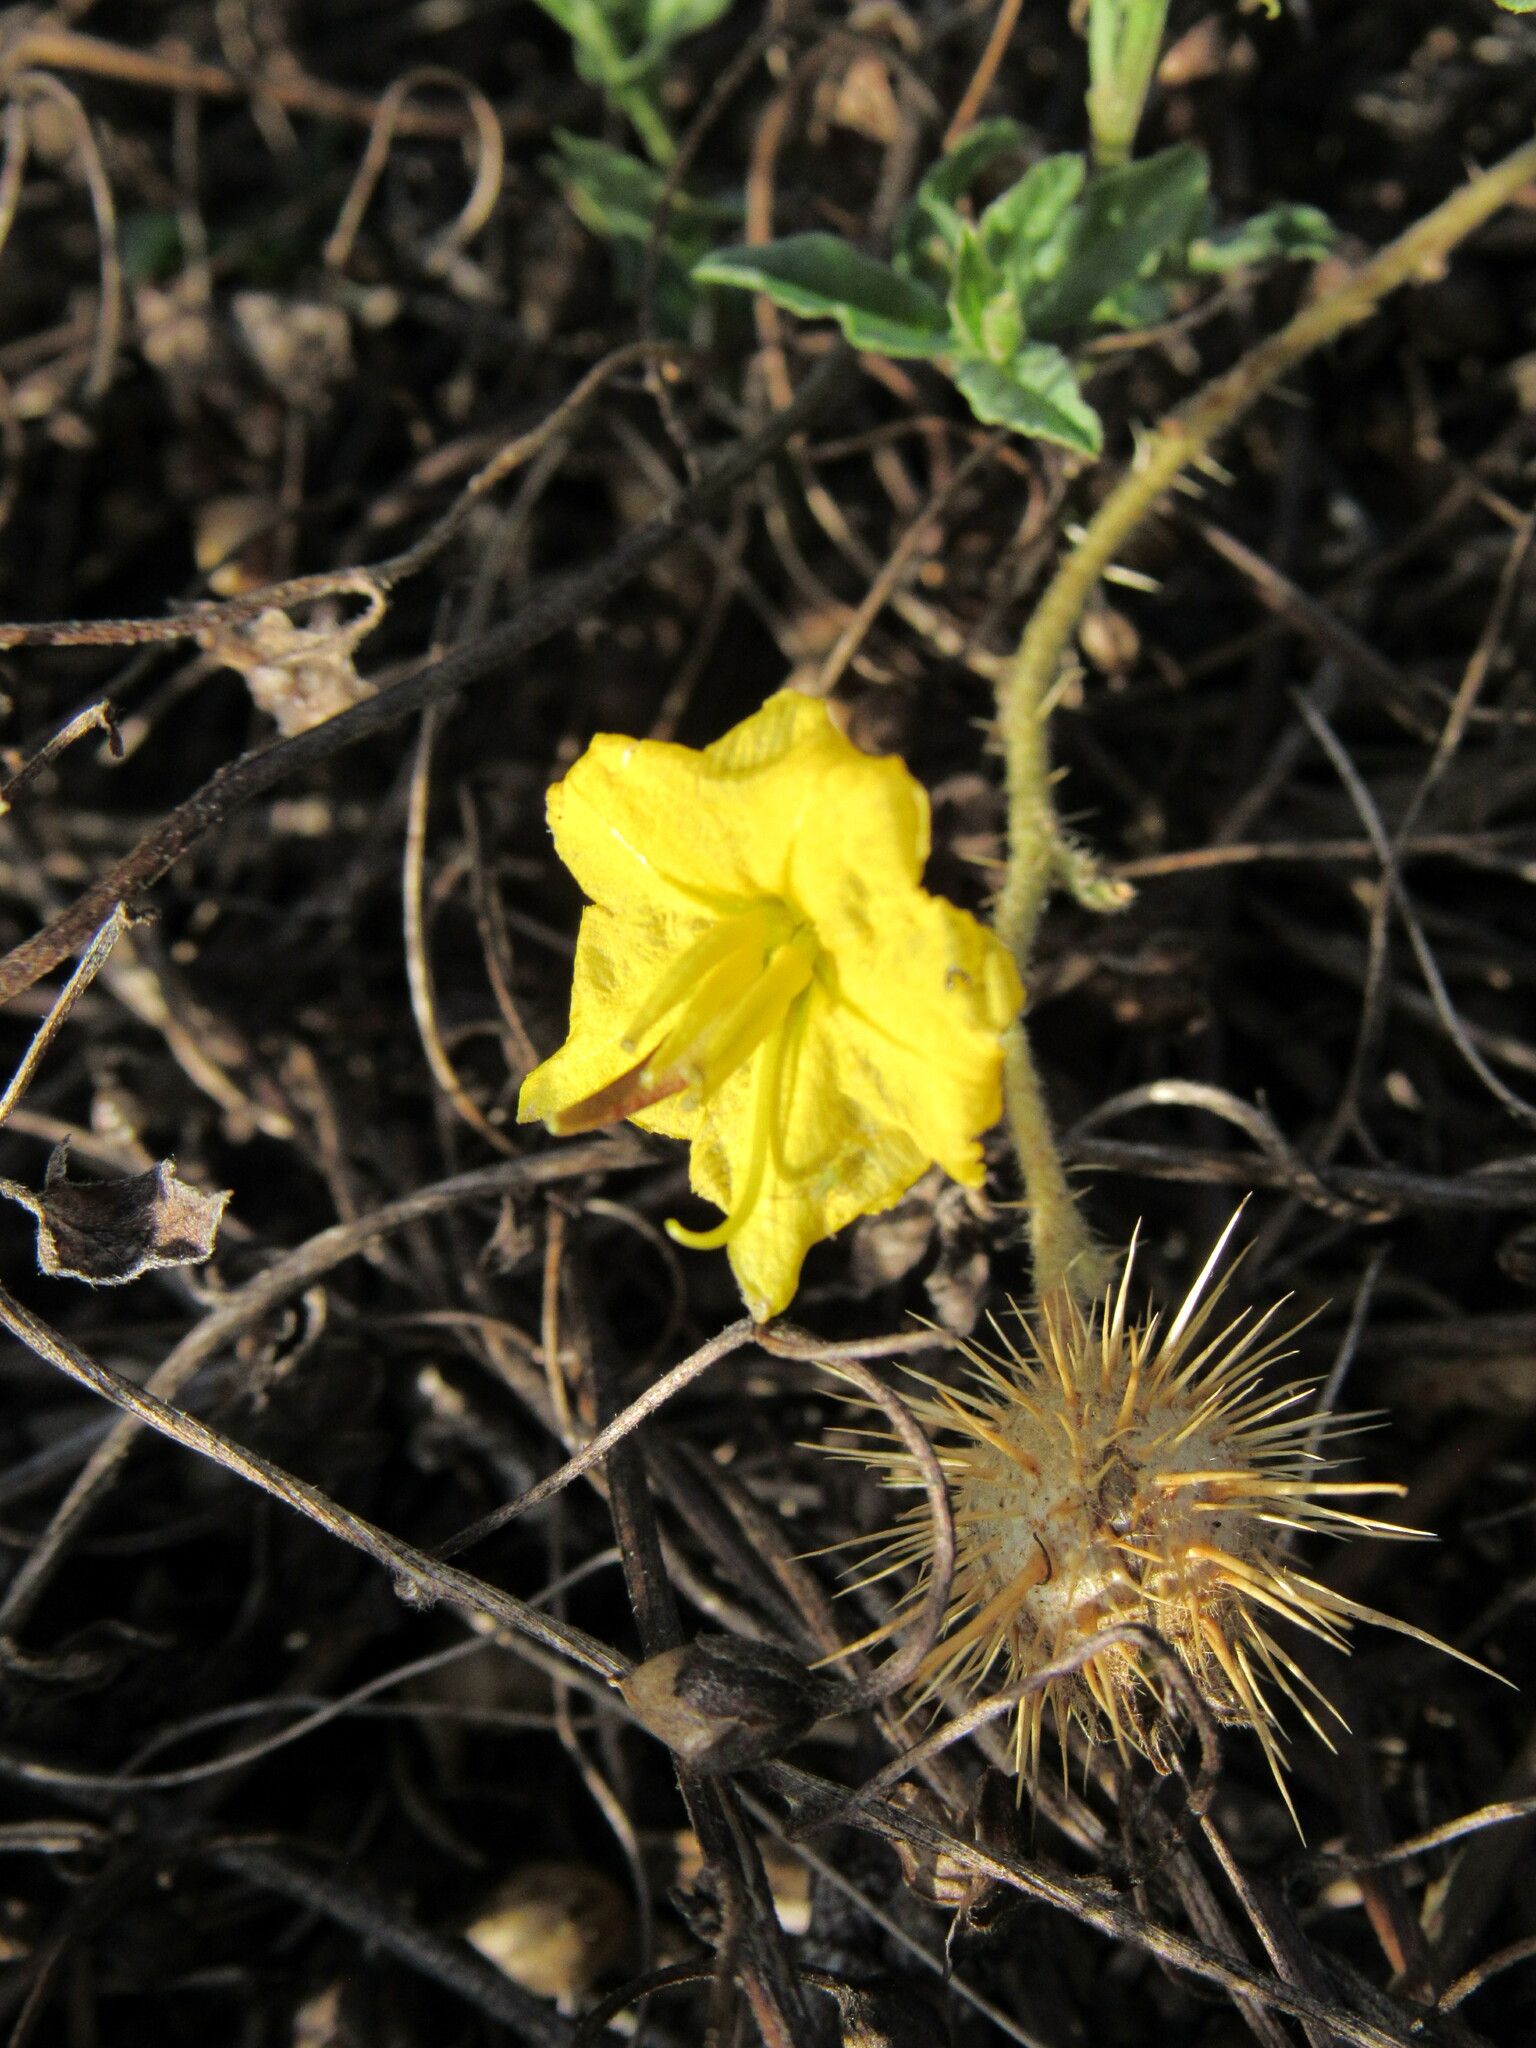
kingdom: Plantae
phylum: Tracheophyta
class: Magnoliopsida
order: Solanales
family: Solanaceae
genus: Solanum
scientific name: Solanum angustifolium
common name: Buffalobur nightshade
